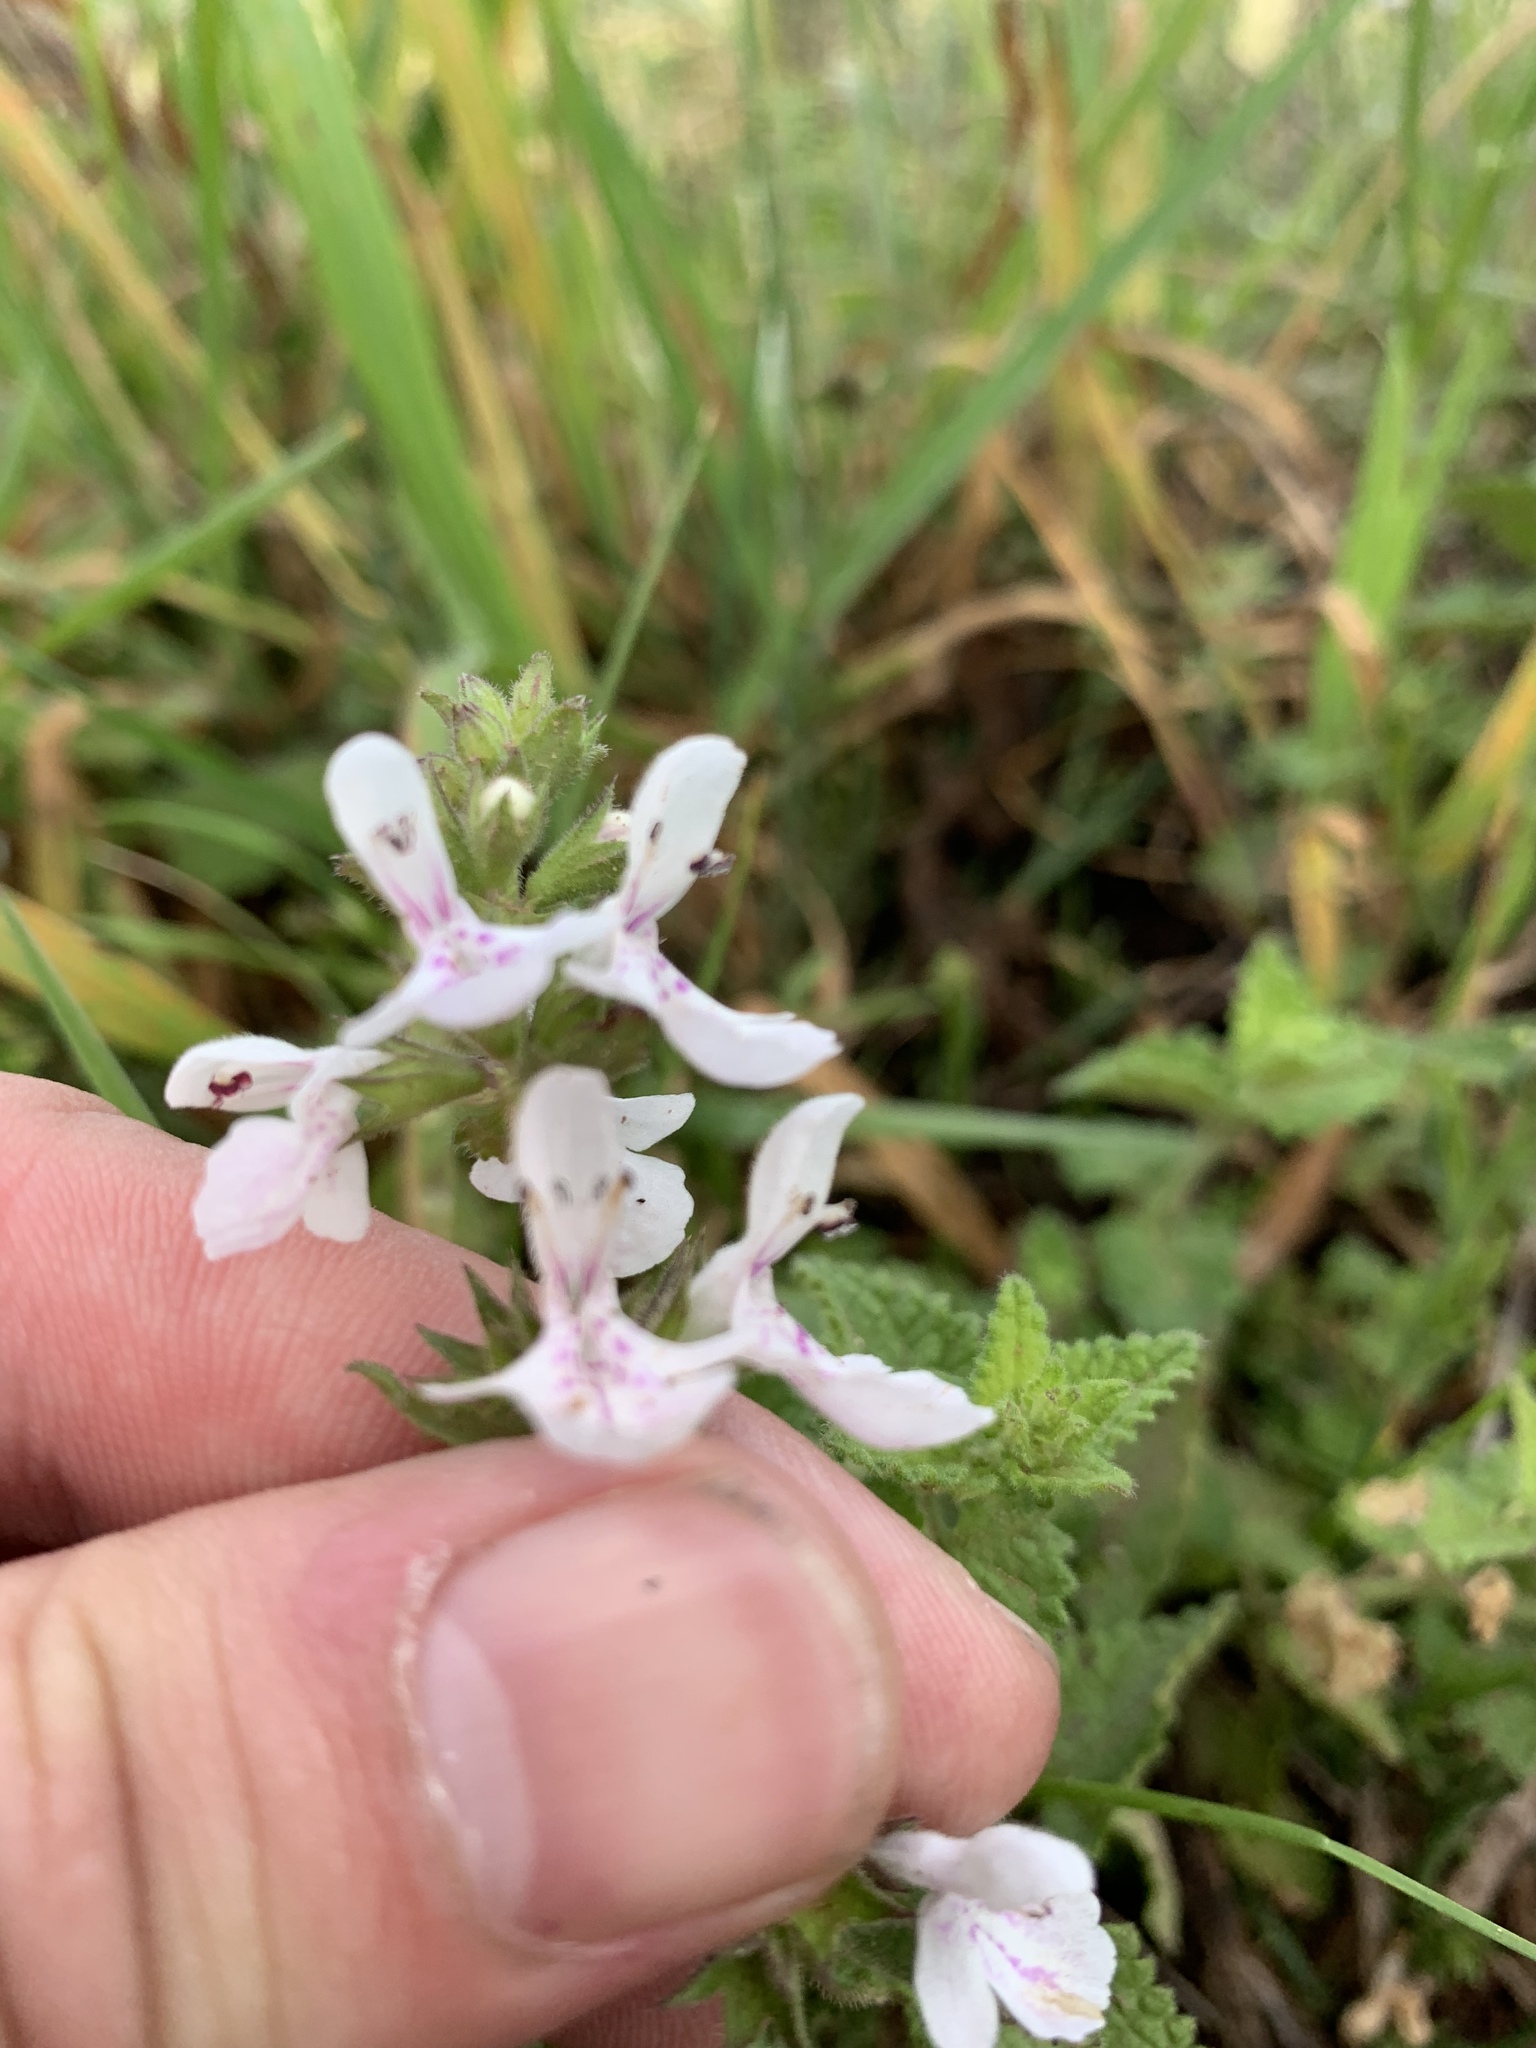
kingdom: Plantae
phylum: Tracheophyta
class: Magnoliopsida
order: Lamiales
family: Lamiaceae
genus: Stachys
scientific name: Stachys aethiopica
